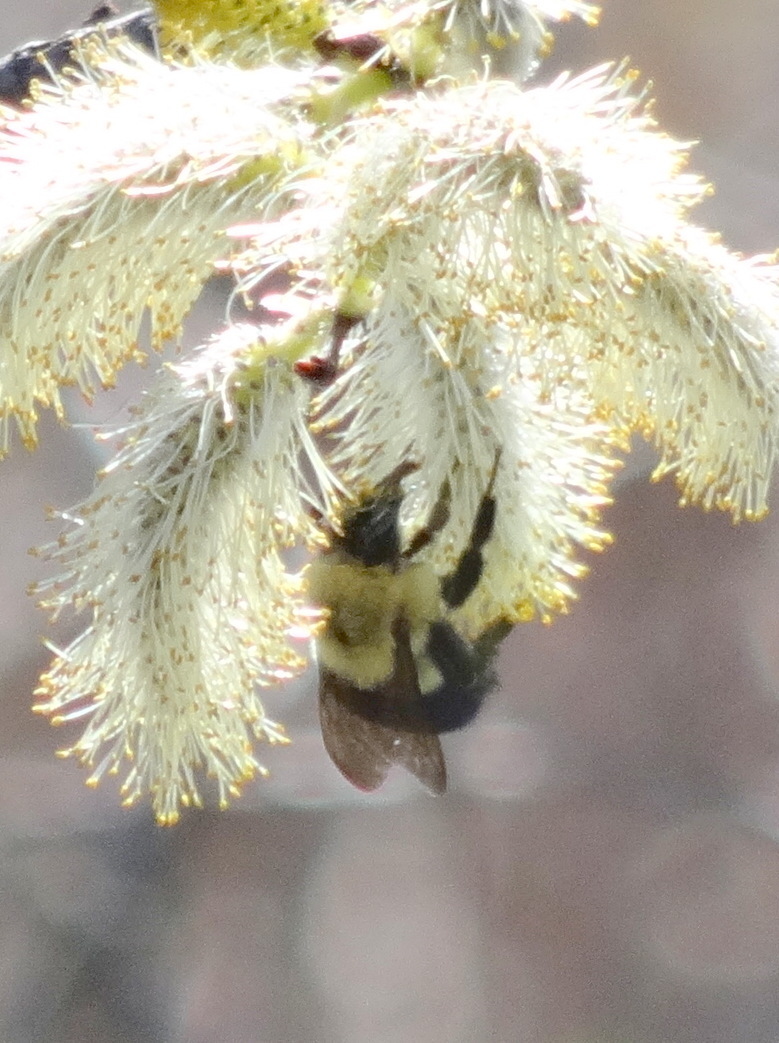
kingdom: Animalia
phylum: Arthropoda
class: Insecta
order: Hymenoptera
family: Apidae
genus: Bombus
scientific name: Bombus impatiens
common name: Common eastern bumble bee
